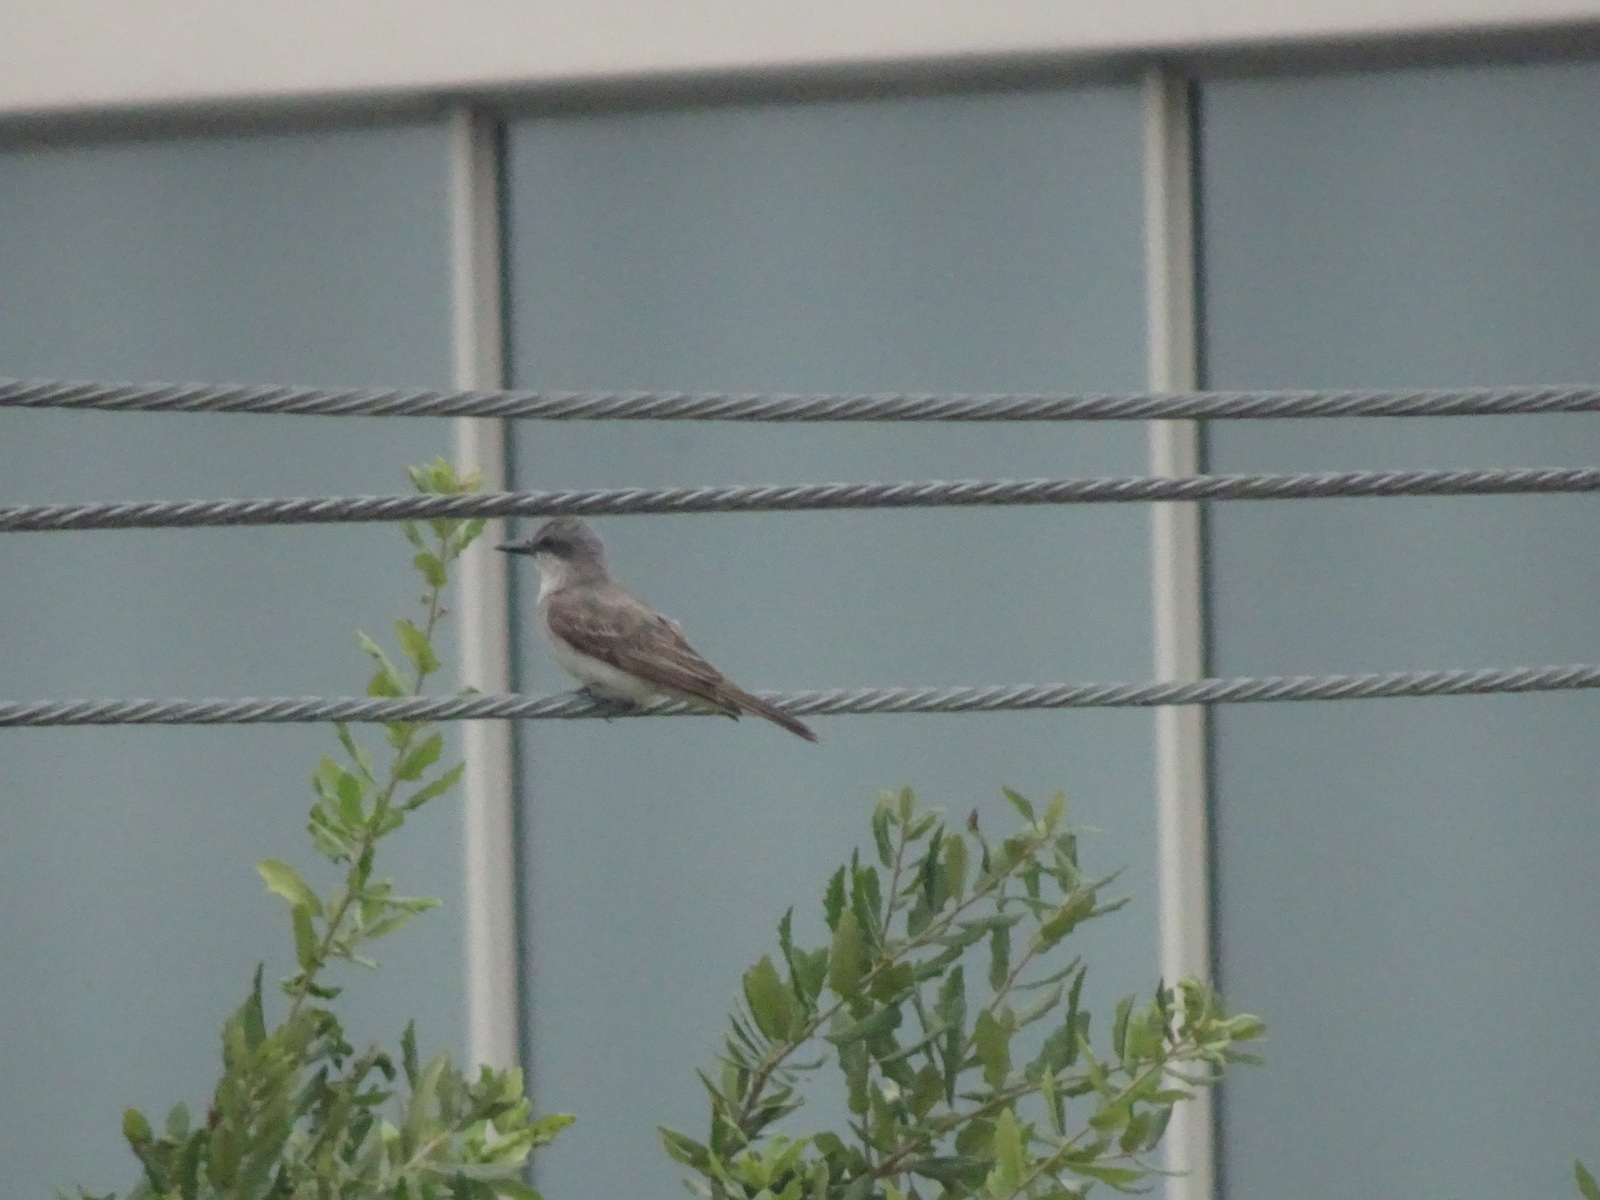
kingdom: Animalia
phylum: Chordata
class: Aves
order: Passeriformes
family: Tyrannidae
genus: Tyrannus
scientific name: Tyrannus dominicensis
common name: Gray kingbird
